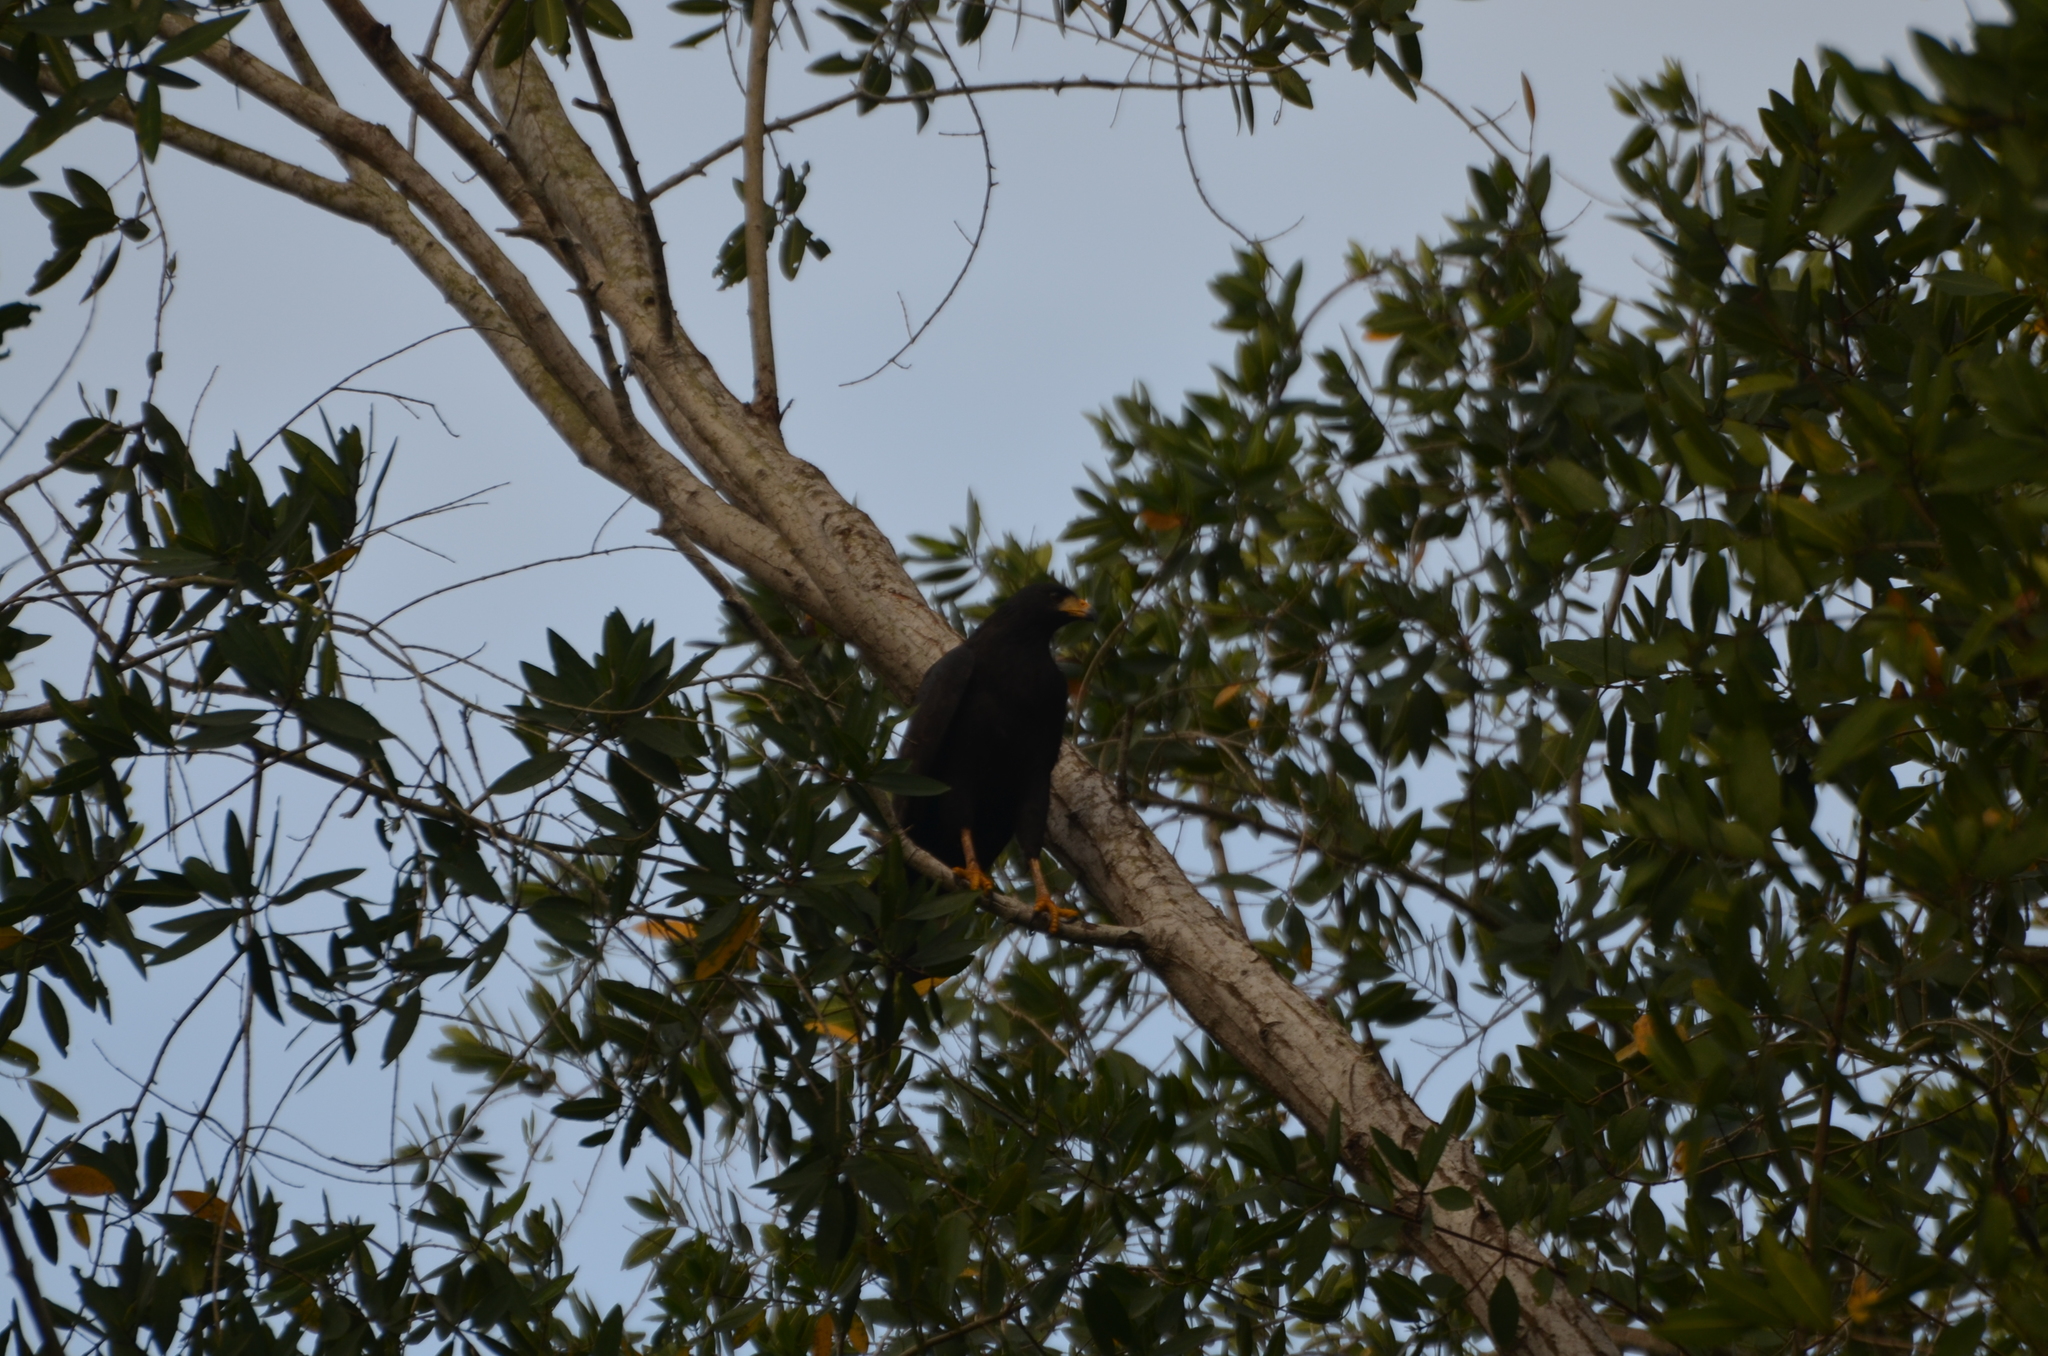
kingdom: Animalia
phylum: Chordata
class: Aves
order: Accipitriformes
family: Accipitridae
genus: Buteogallus
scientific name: Buteogallus anthracinus
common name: Common black hawk
